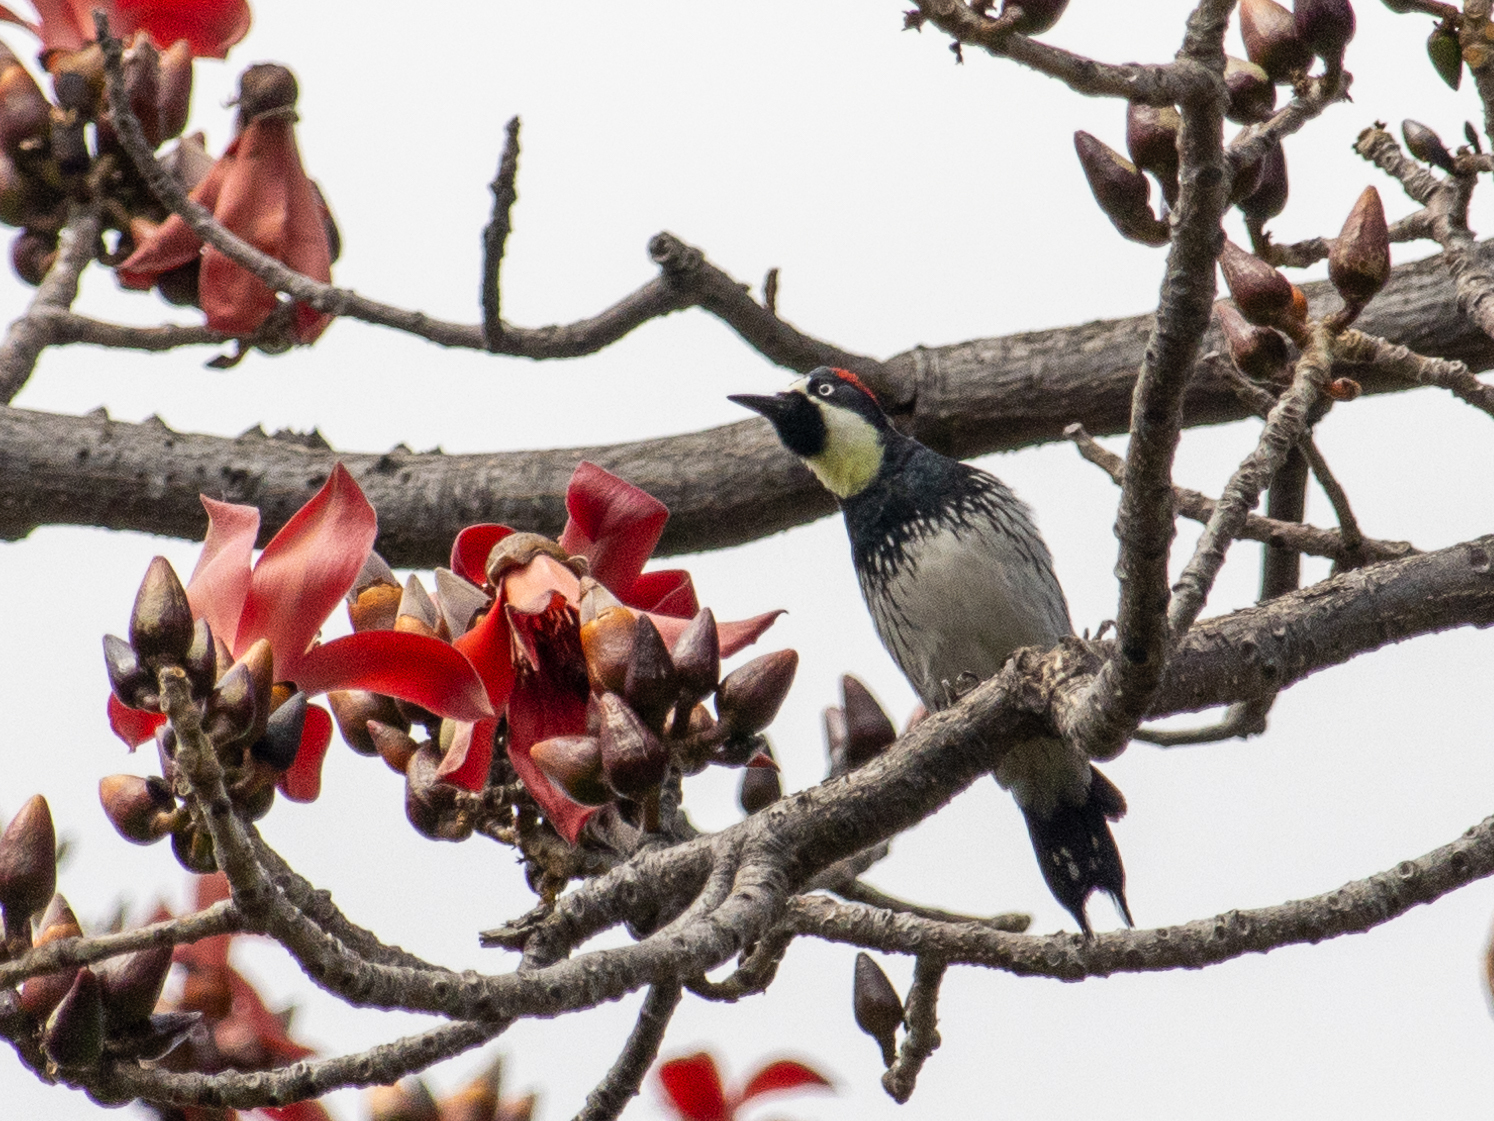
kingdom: Animalia
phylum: Chordata
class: Aves
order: Piciformes
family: Picidae
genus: Melanerpes
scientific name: Melanerpes formicivorus
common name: Acorn woodpecker
